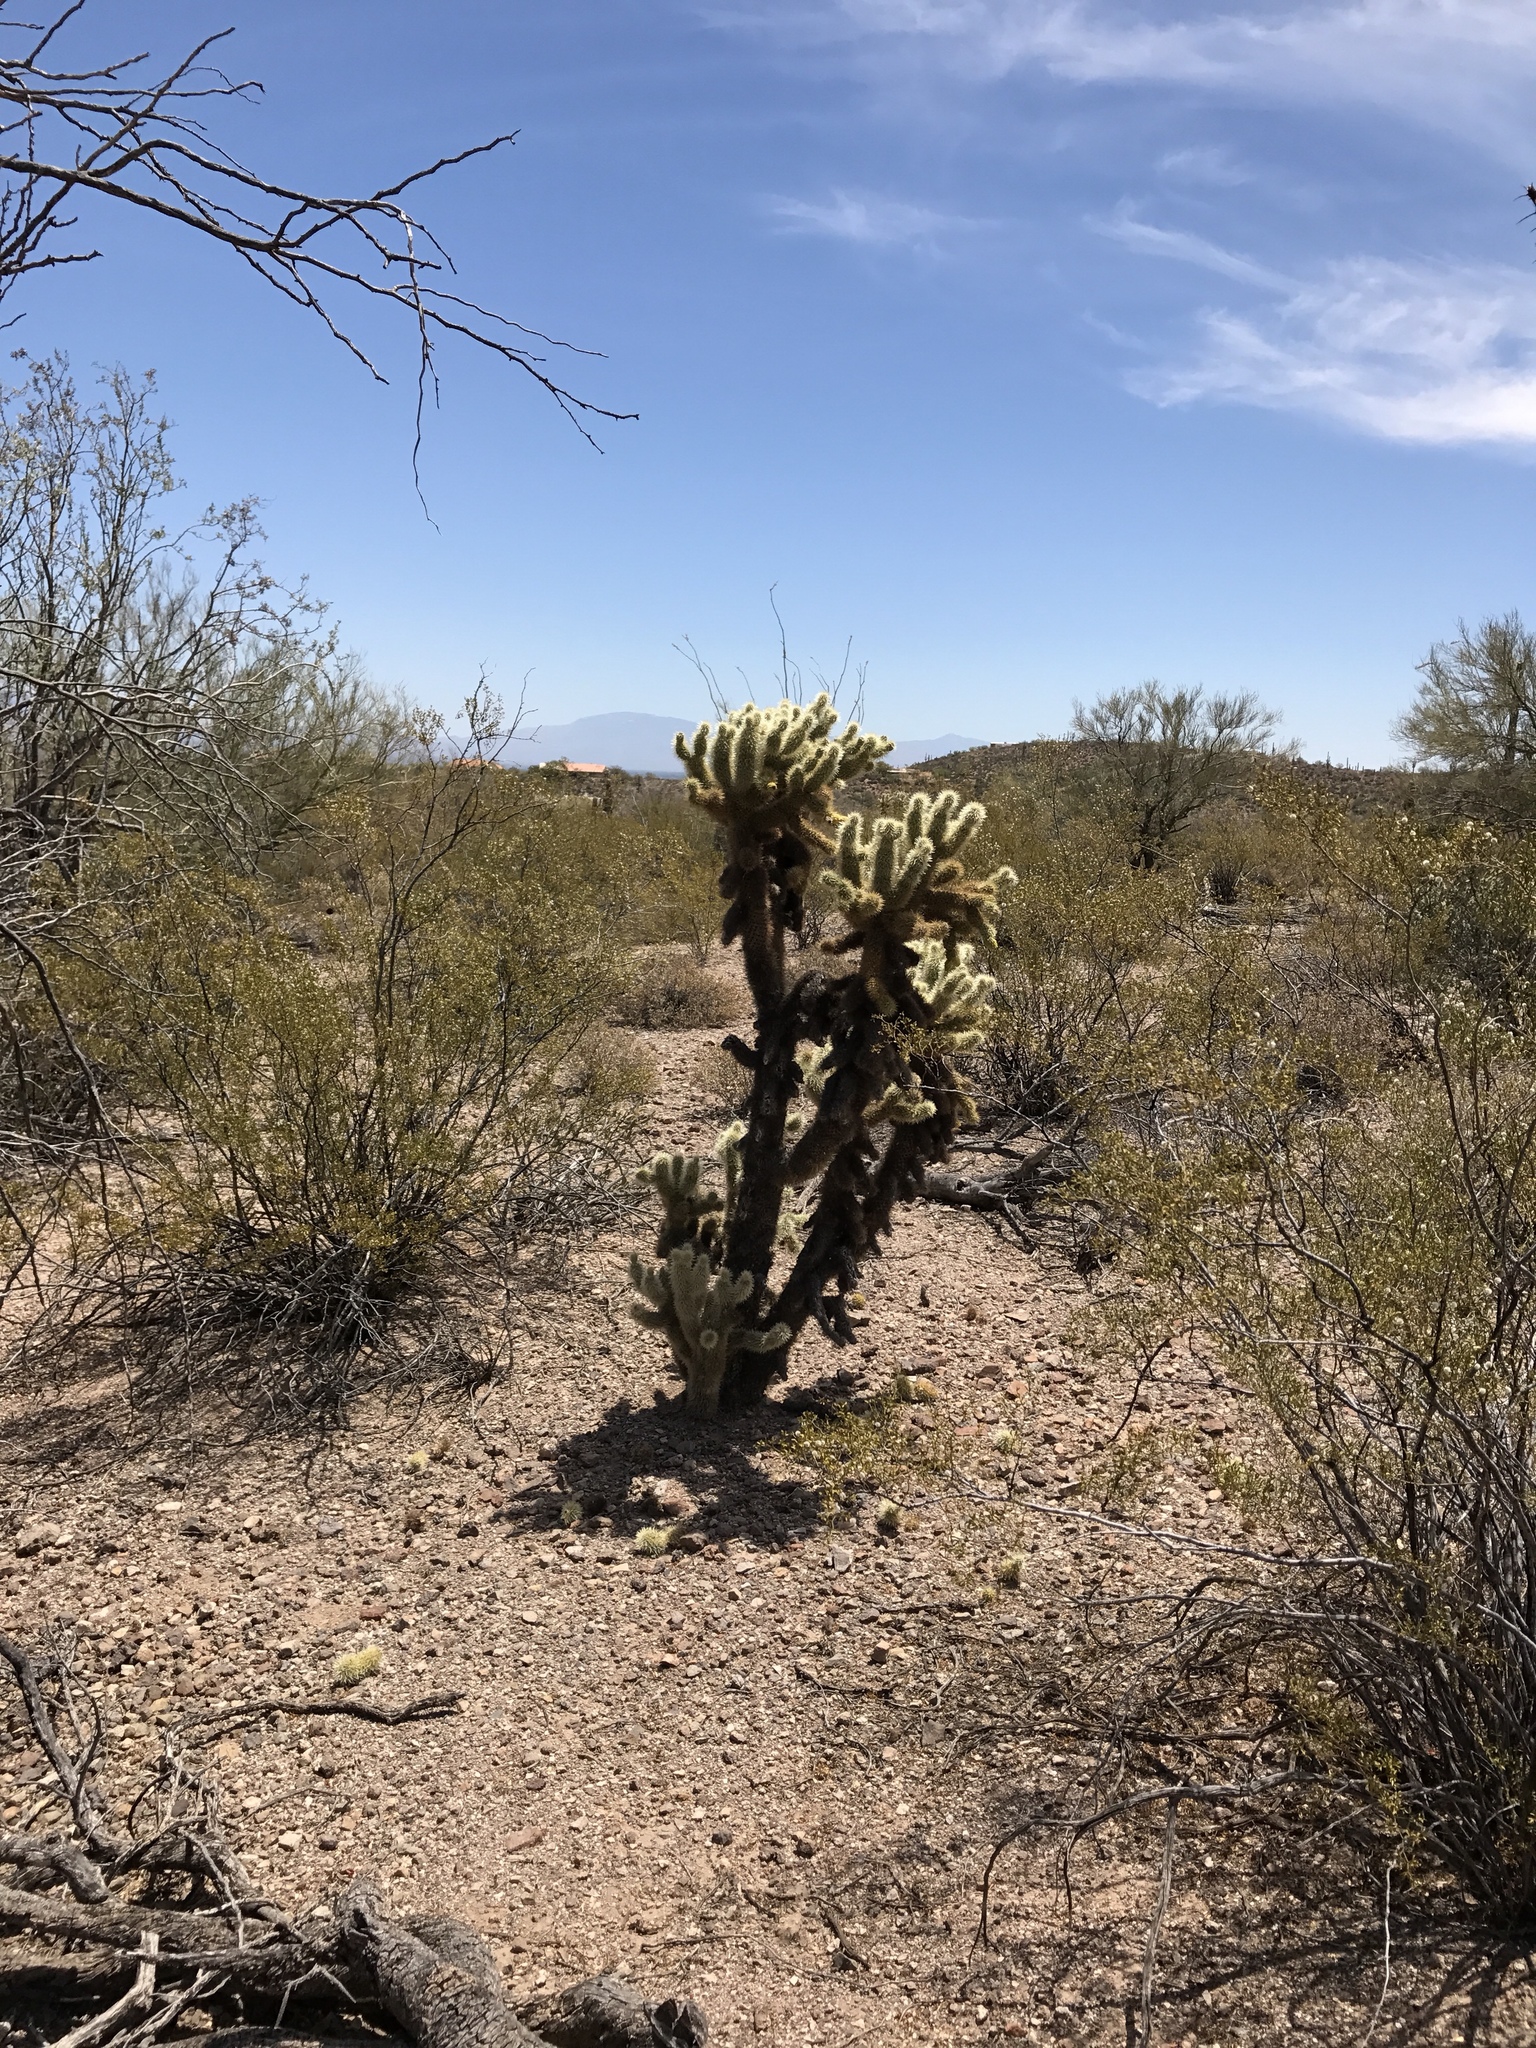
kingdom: Plantae
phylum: Tracheophyta
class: Magnoliopsida
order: Caryophyllales
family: Cactaceae
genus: Cylindropuntia
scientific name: Cylindropuntia fosbergii
